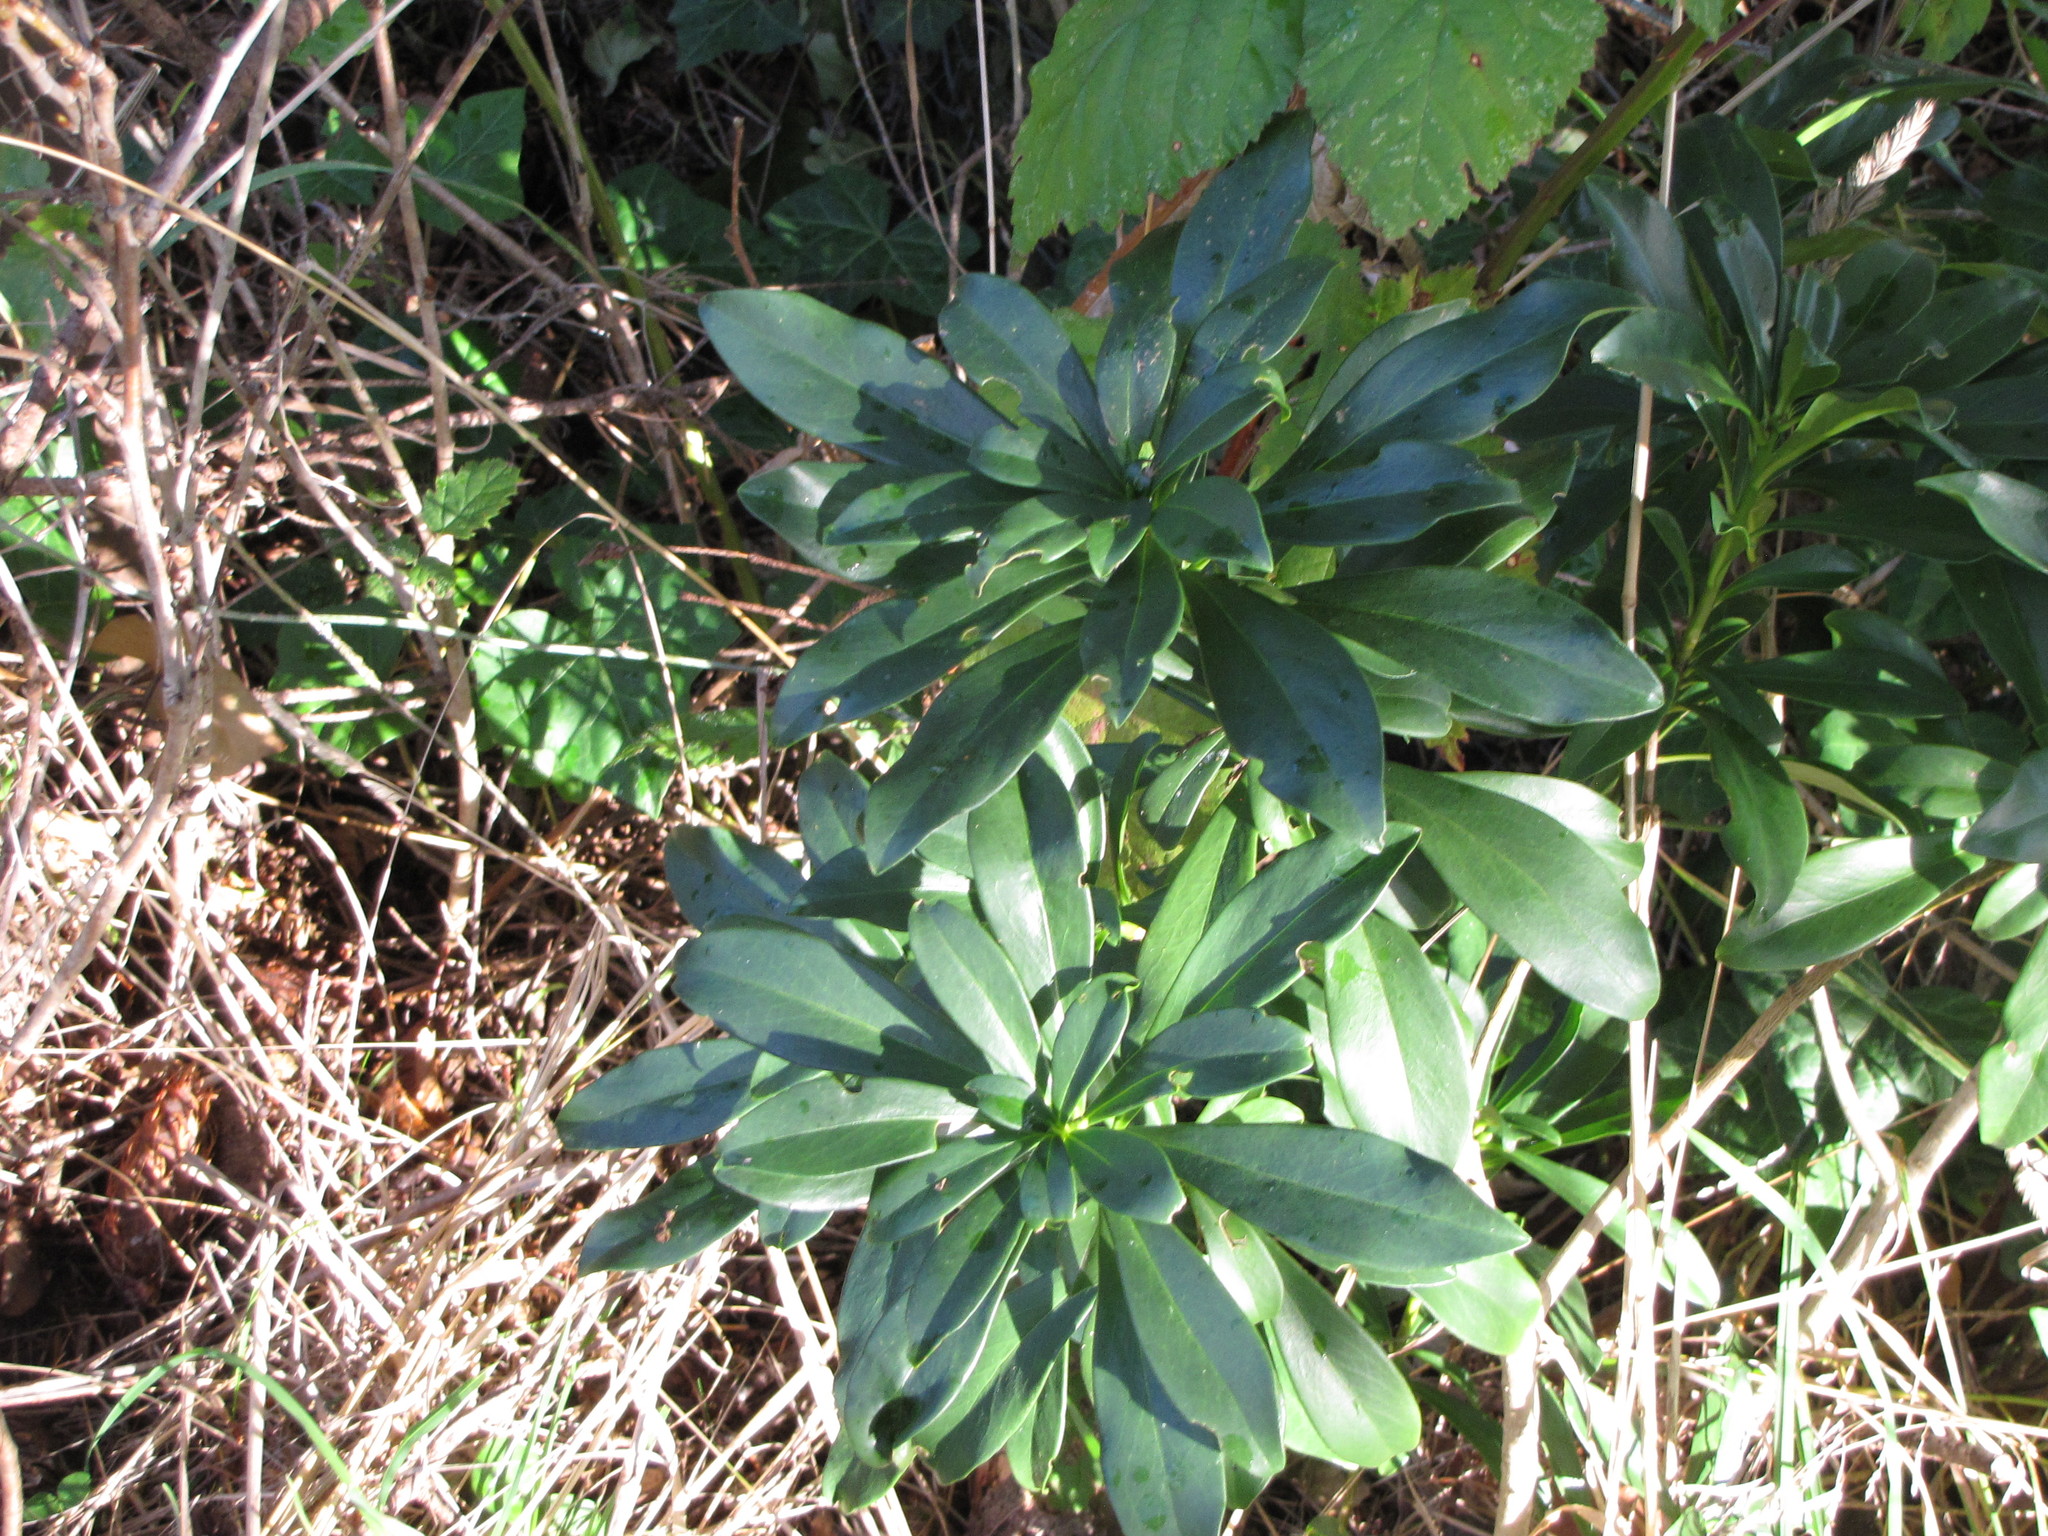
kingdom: Plantae
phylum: Tracheophyta
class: Magnoliopsida
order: Malvales
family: Thymelaeaceae
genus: Daphne
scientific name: Daphne laureola
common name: Spurge-laurel
